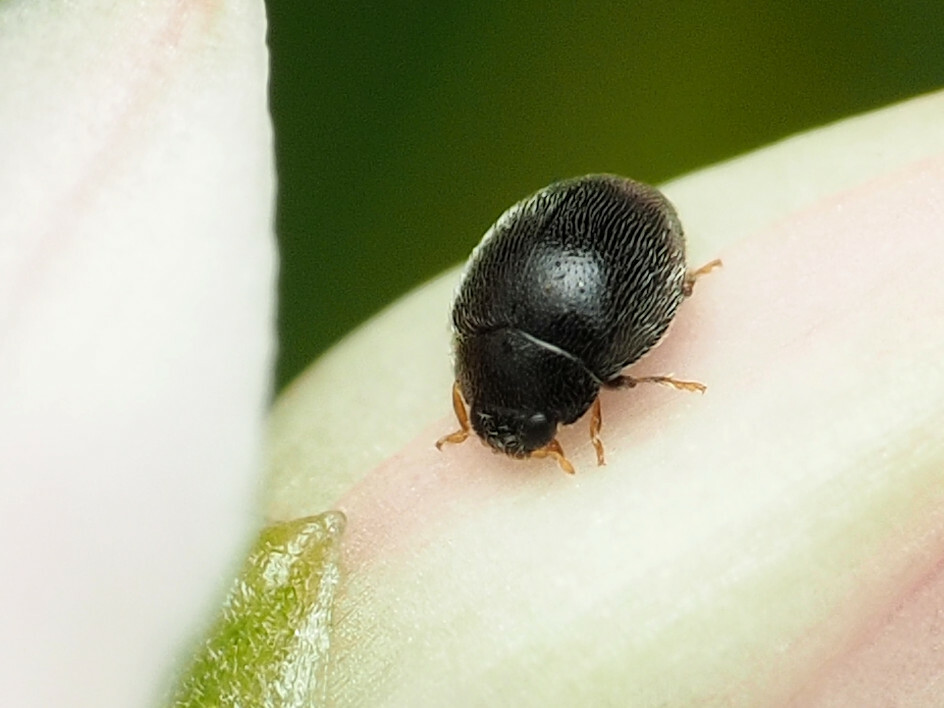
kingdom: Animalia
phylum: Arthropoda
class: Insecta
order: Coleoptera
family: Coccinellidae
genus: Stethorus
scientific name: Stethorus pusillus
